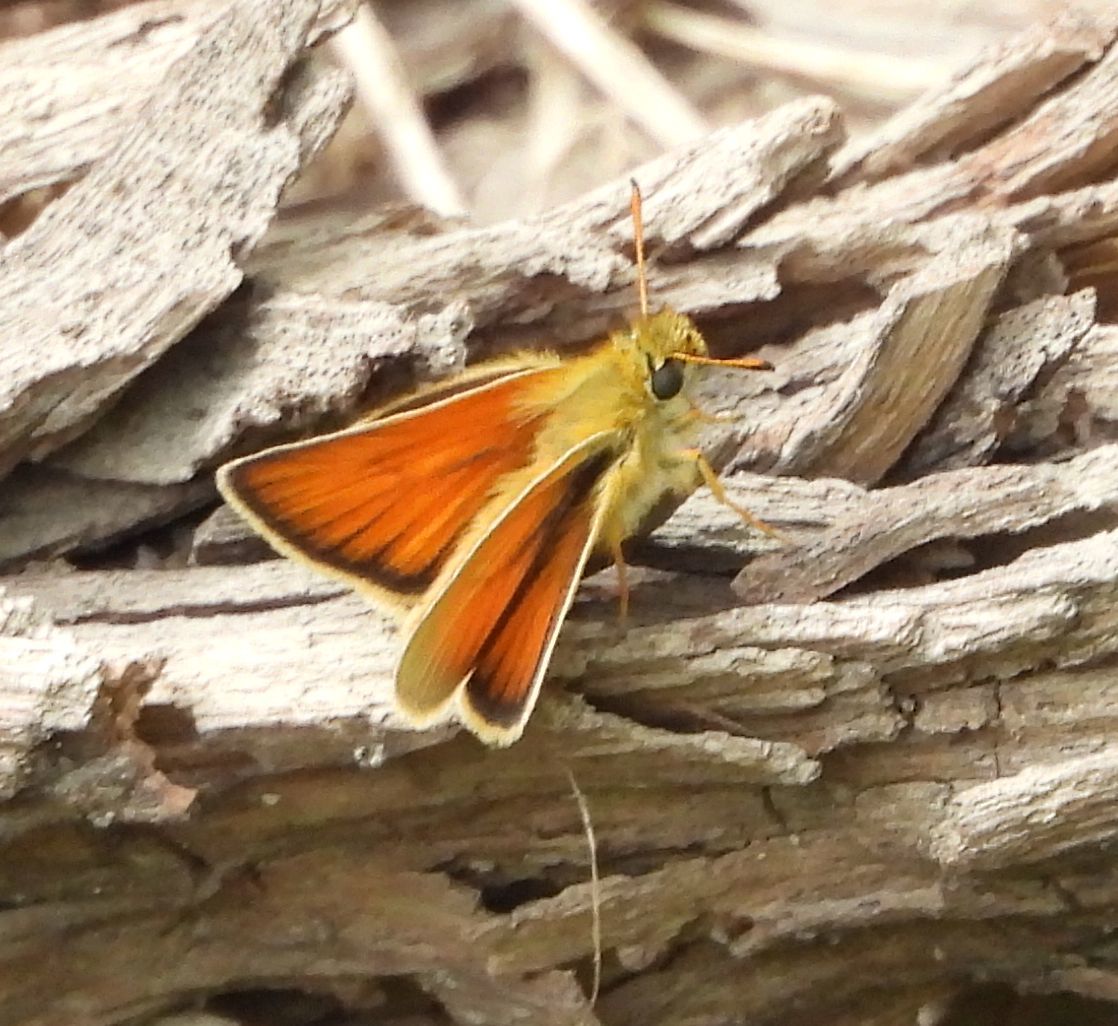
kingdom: Animalia
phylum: Arthropoda
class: Insecta
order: Lepidoptera
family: Hesperiidae
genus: Thymelicus
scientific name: Thymelicus lineola
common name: Essex skipper
